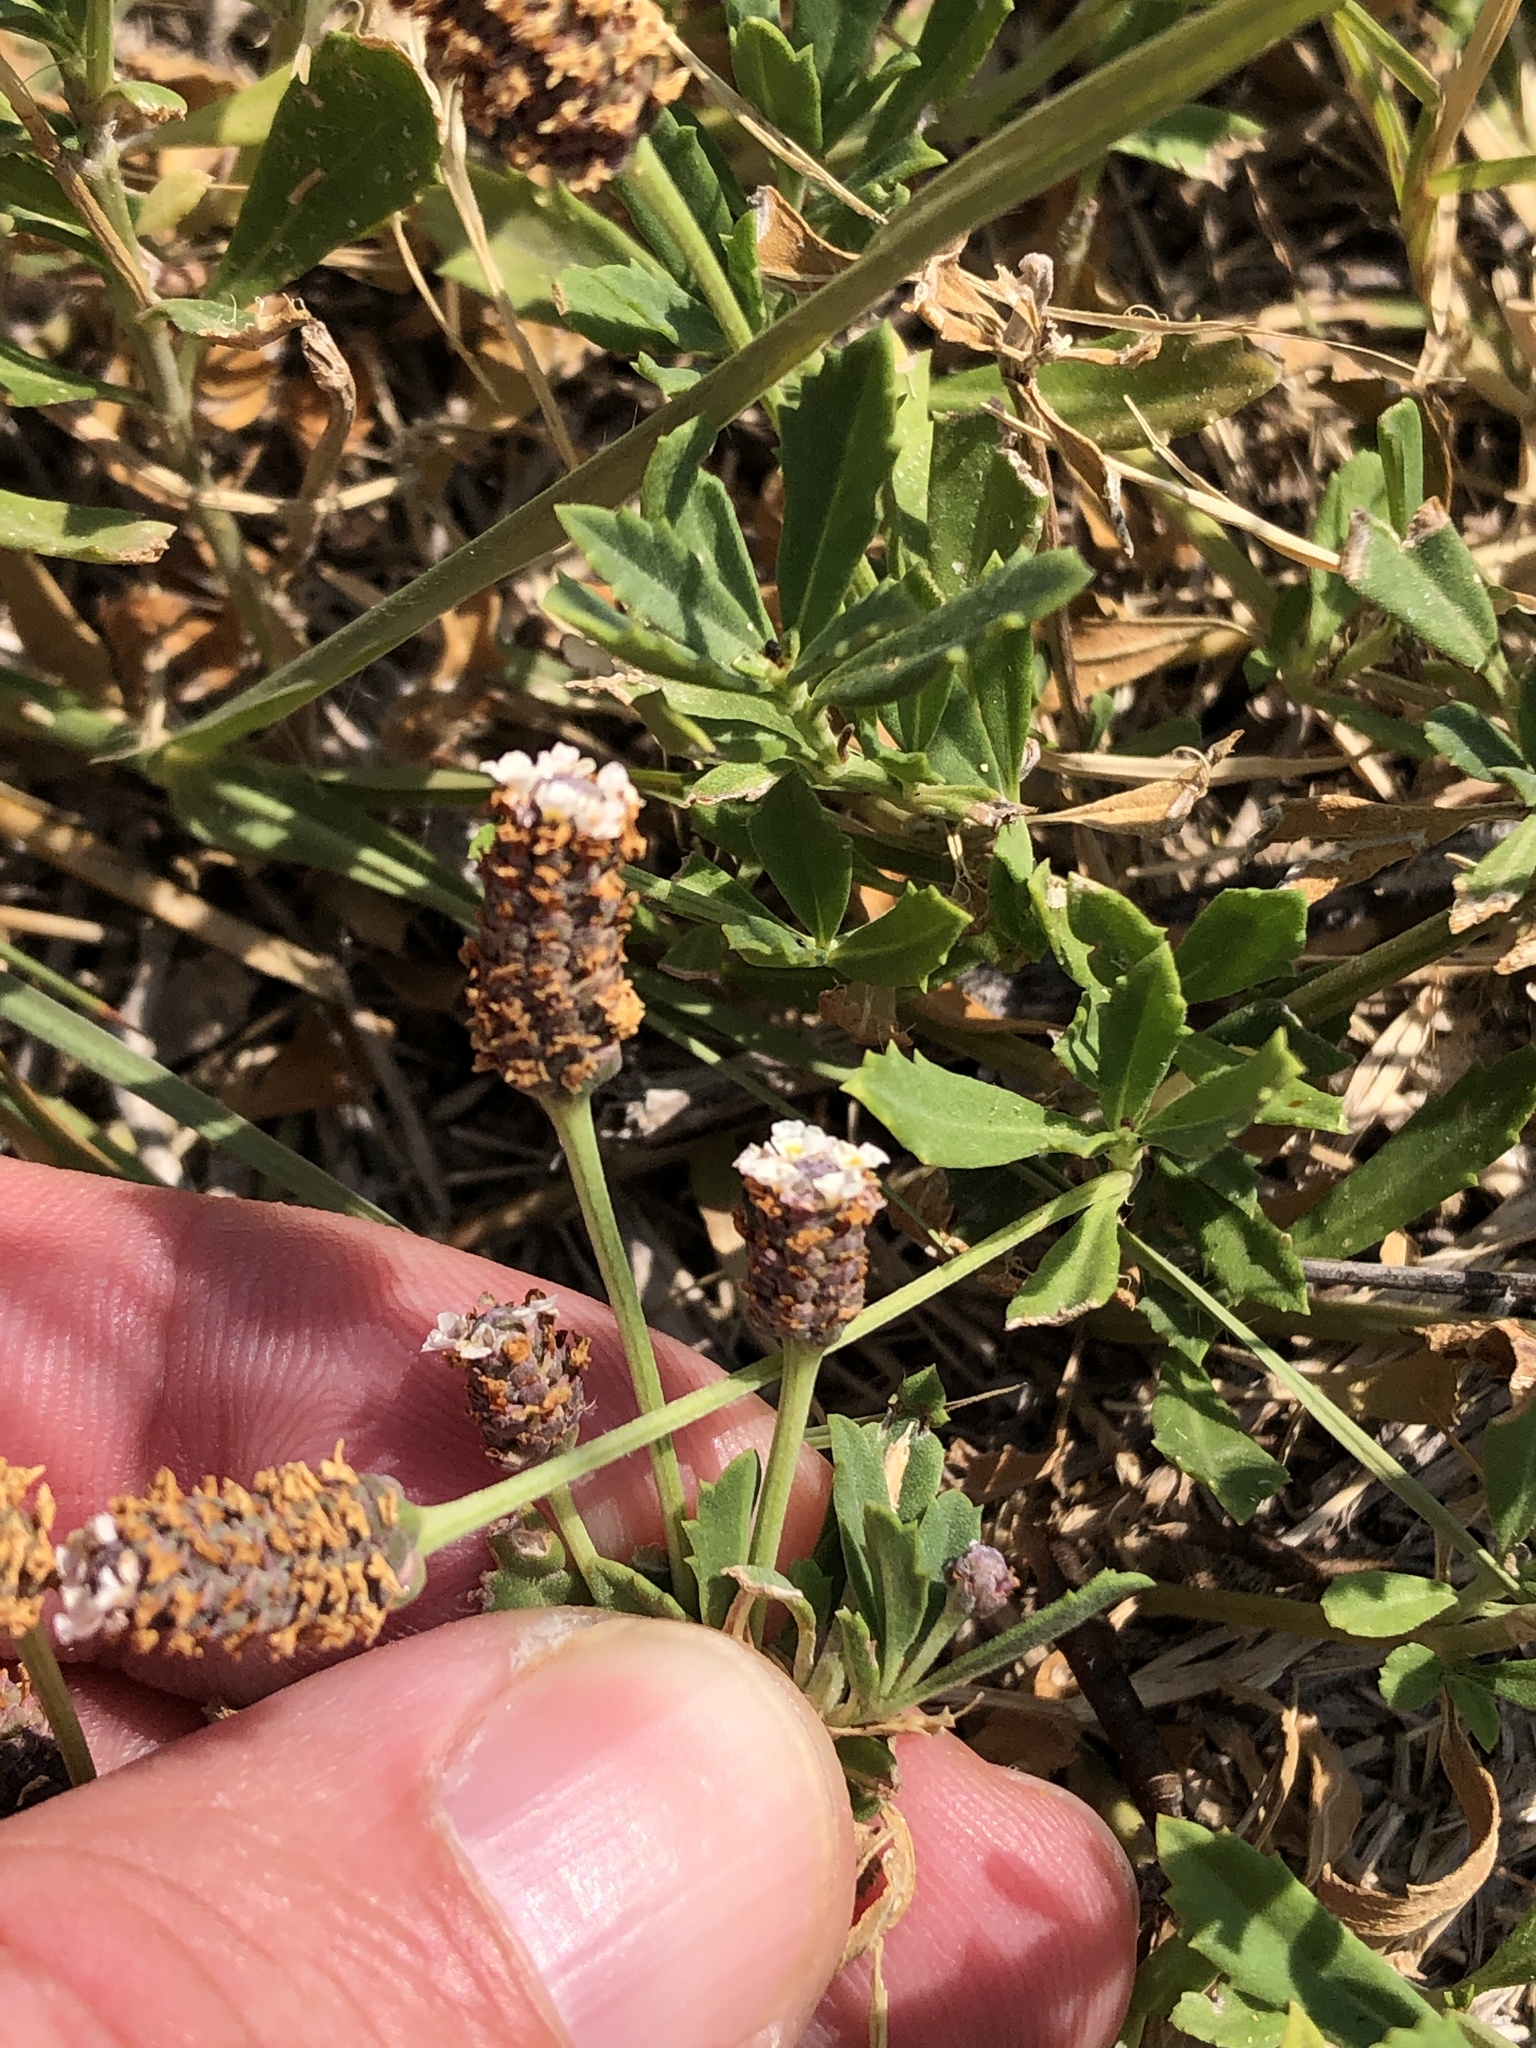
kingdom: Plantae
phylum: Tracheophyta
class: Magnoliopsida
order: Lamiales
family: Verbenaceae
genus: Phyla
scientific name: Phyla nodiflora
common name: Frogfruit
